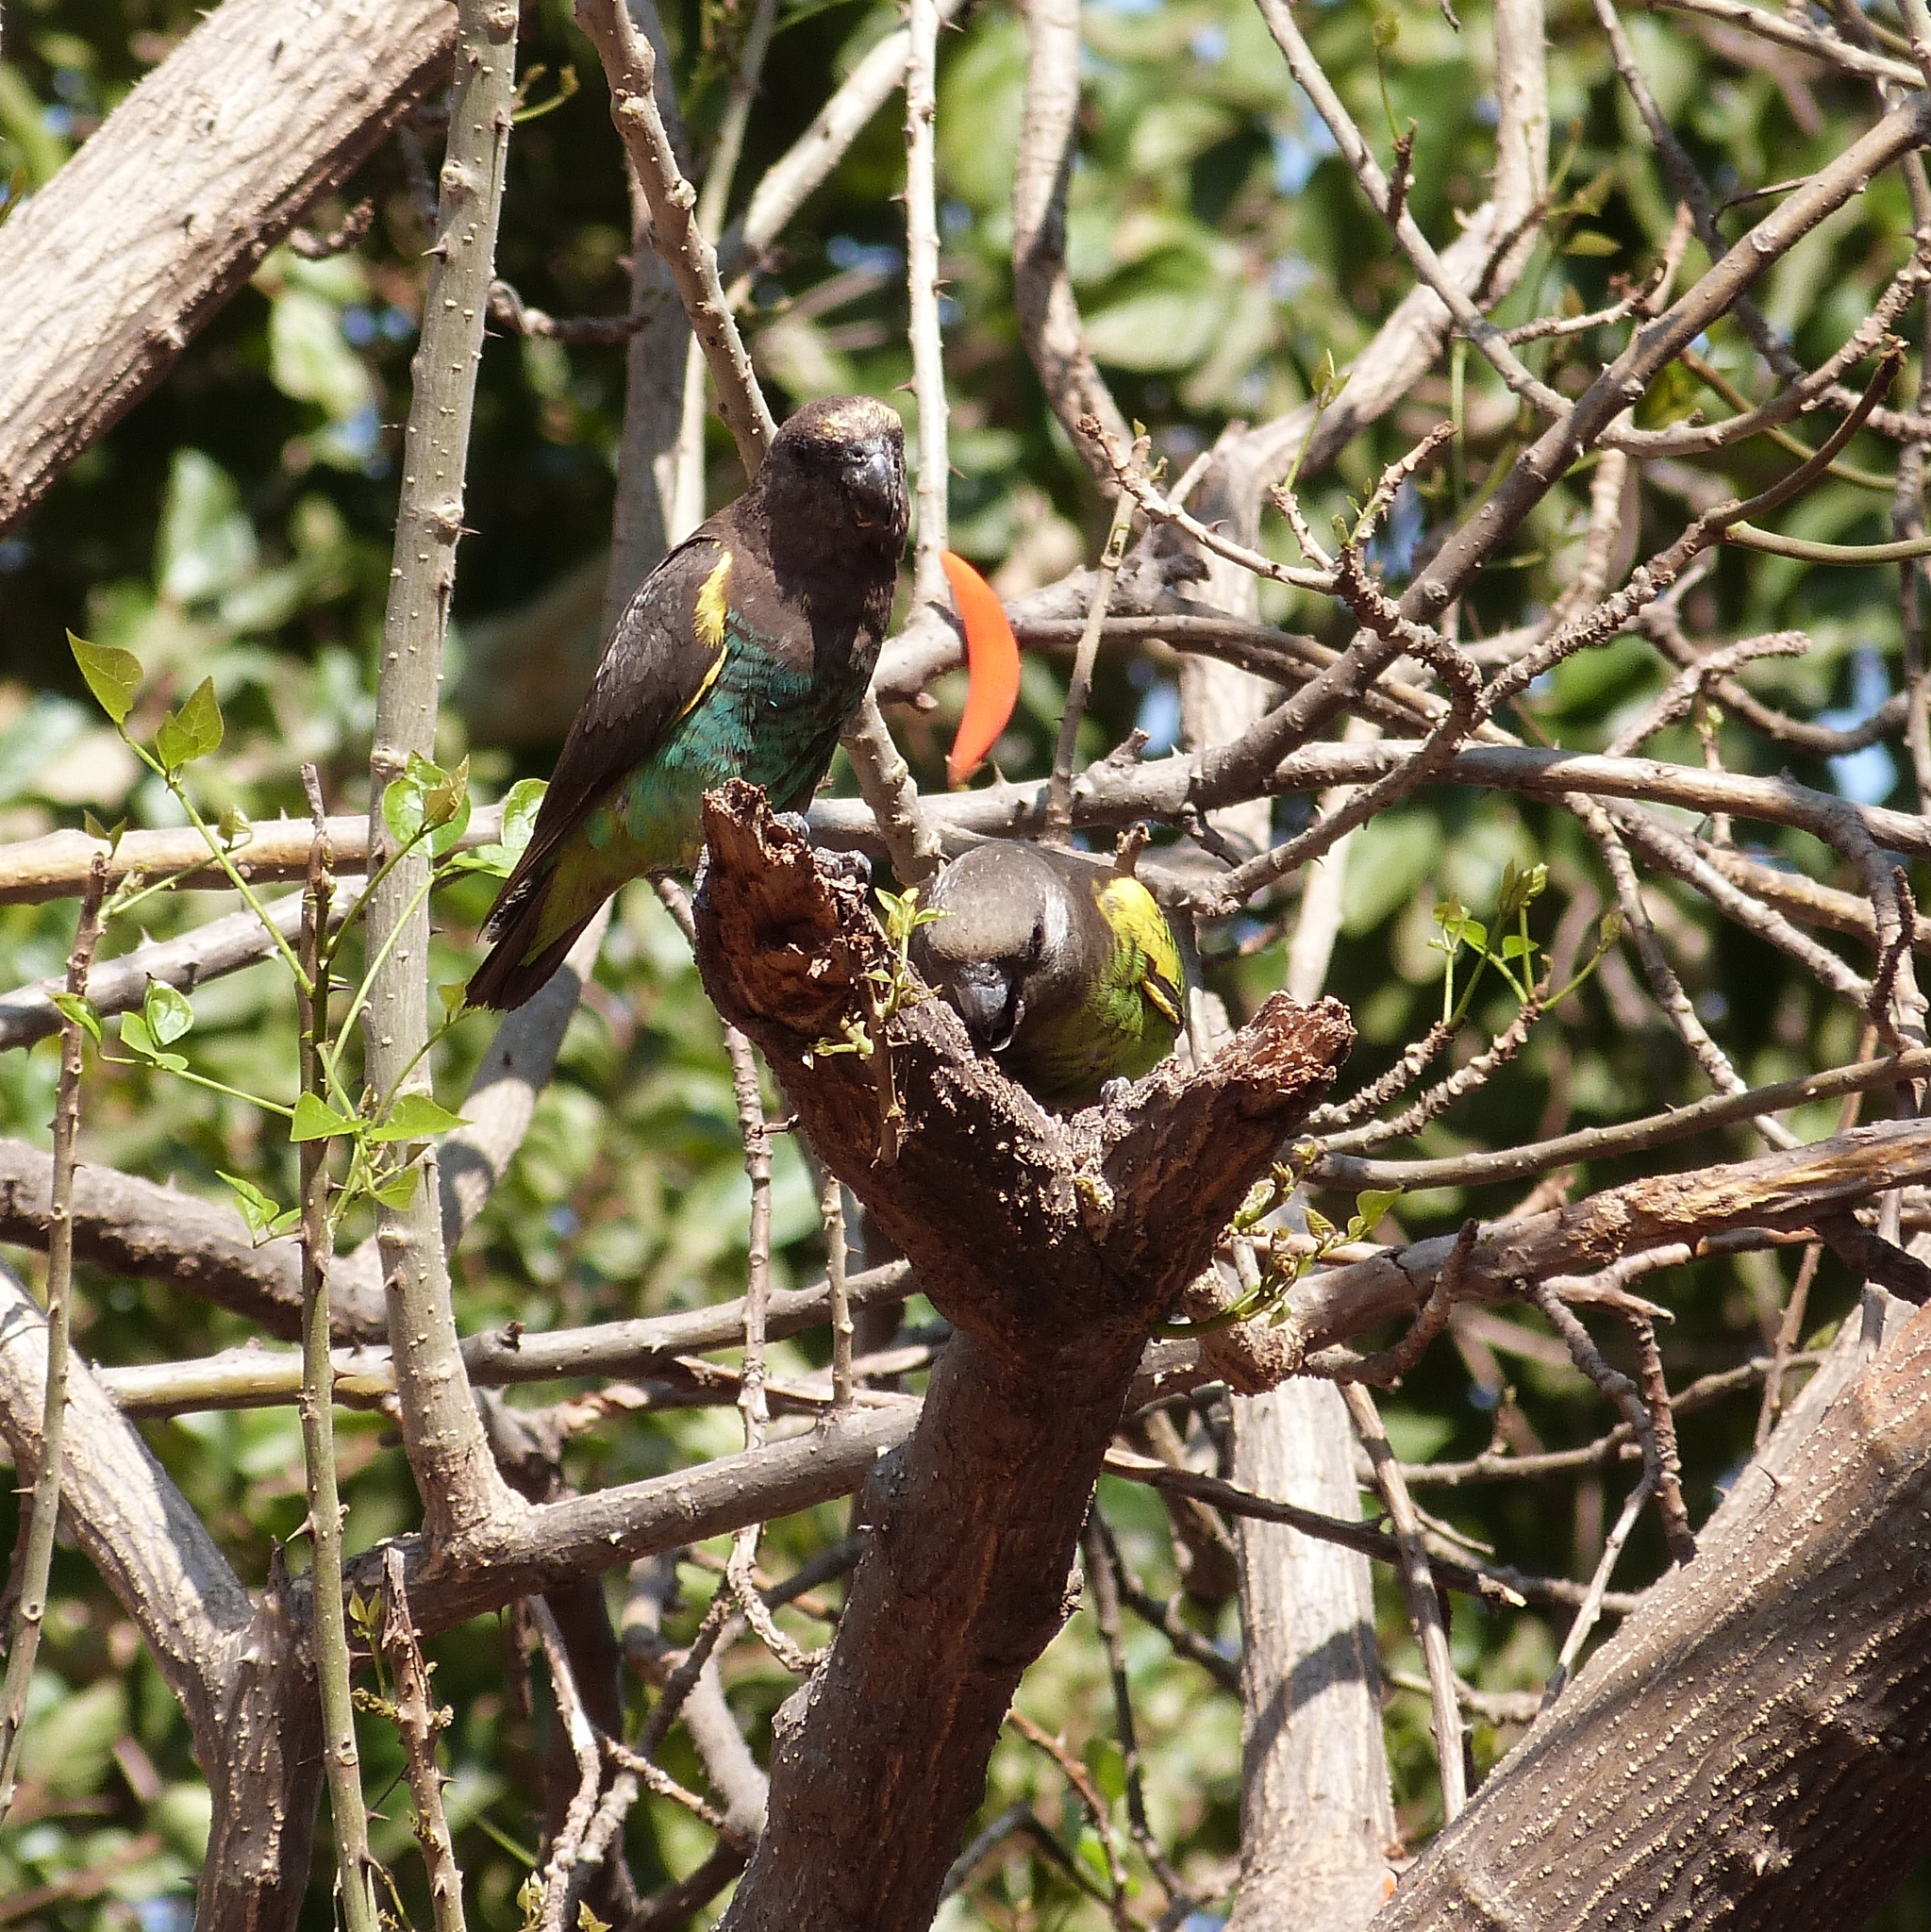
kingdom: Animalia
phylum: Chordata
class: Aves
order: Psittaciformes
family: Psittacidae
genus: Poicephalus
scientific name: Poicephalus meyeri
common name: Meyer's parrot
